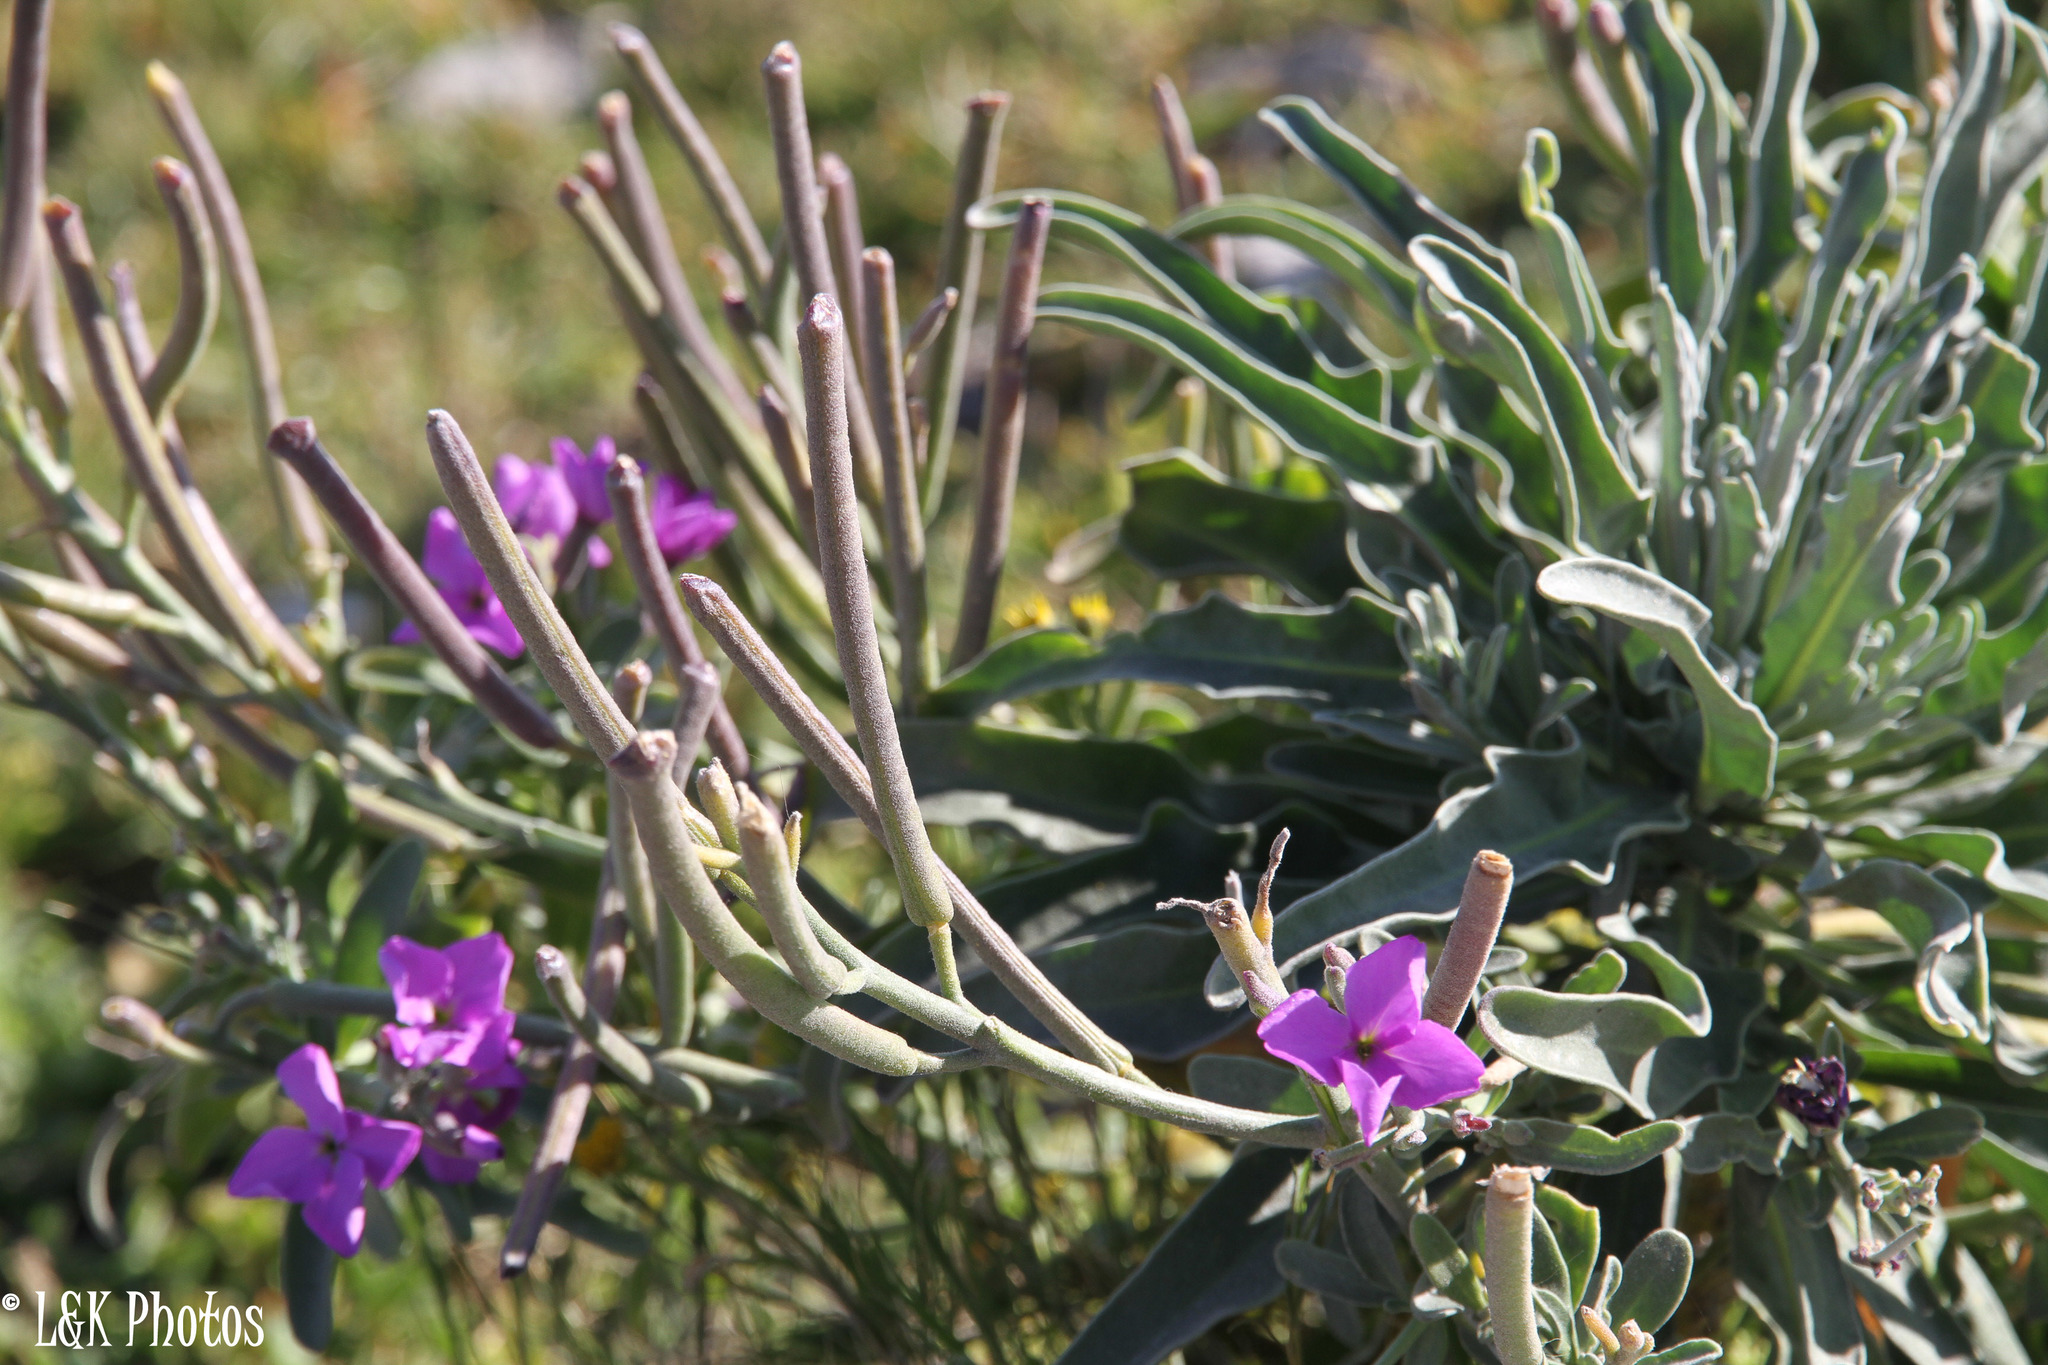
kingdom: Plantae
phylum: Tracheophyta
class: Magnoliopsida
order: Brassicales
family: Brassicaceae
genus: Matthiola
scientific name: Matthiola incana
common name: Hoary stock
